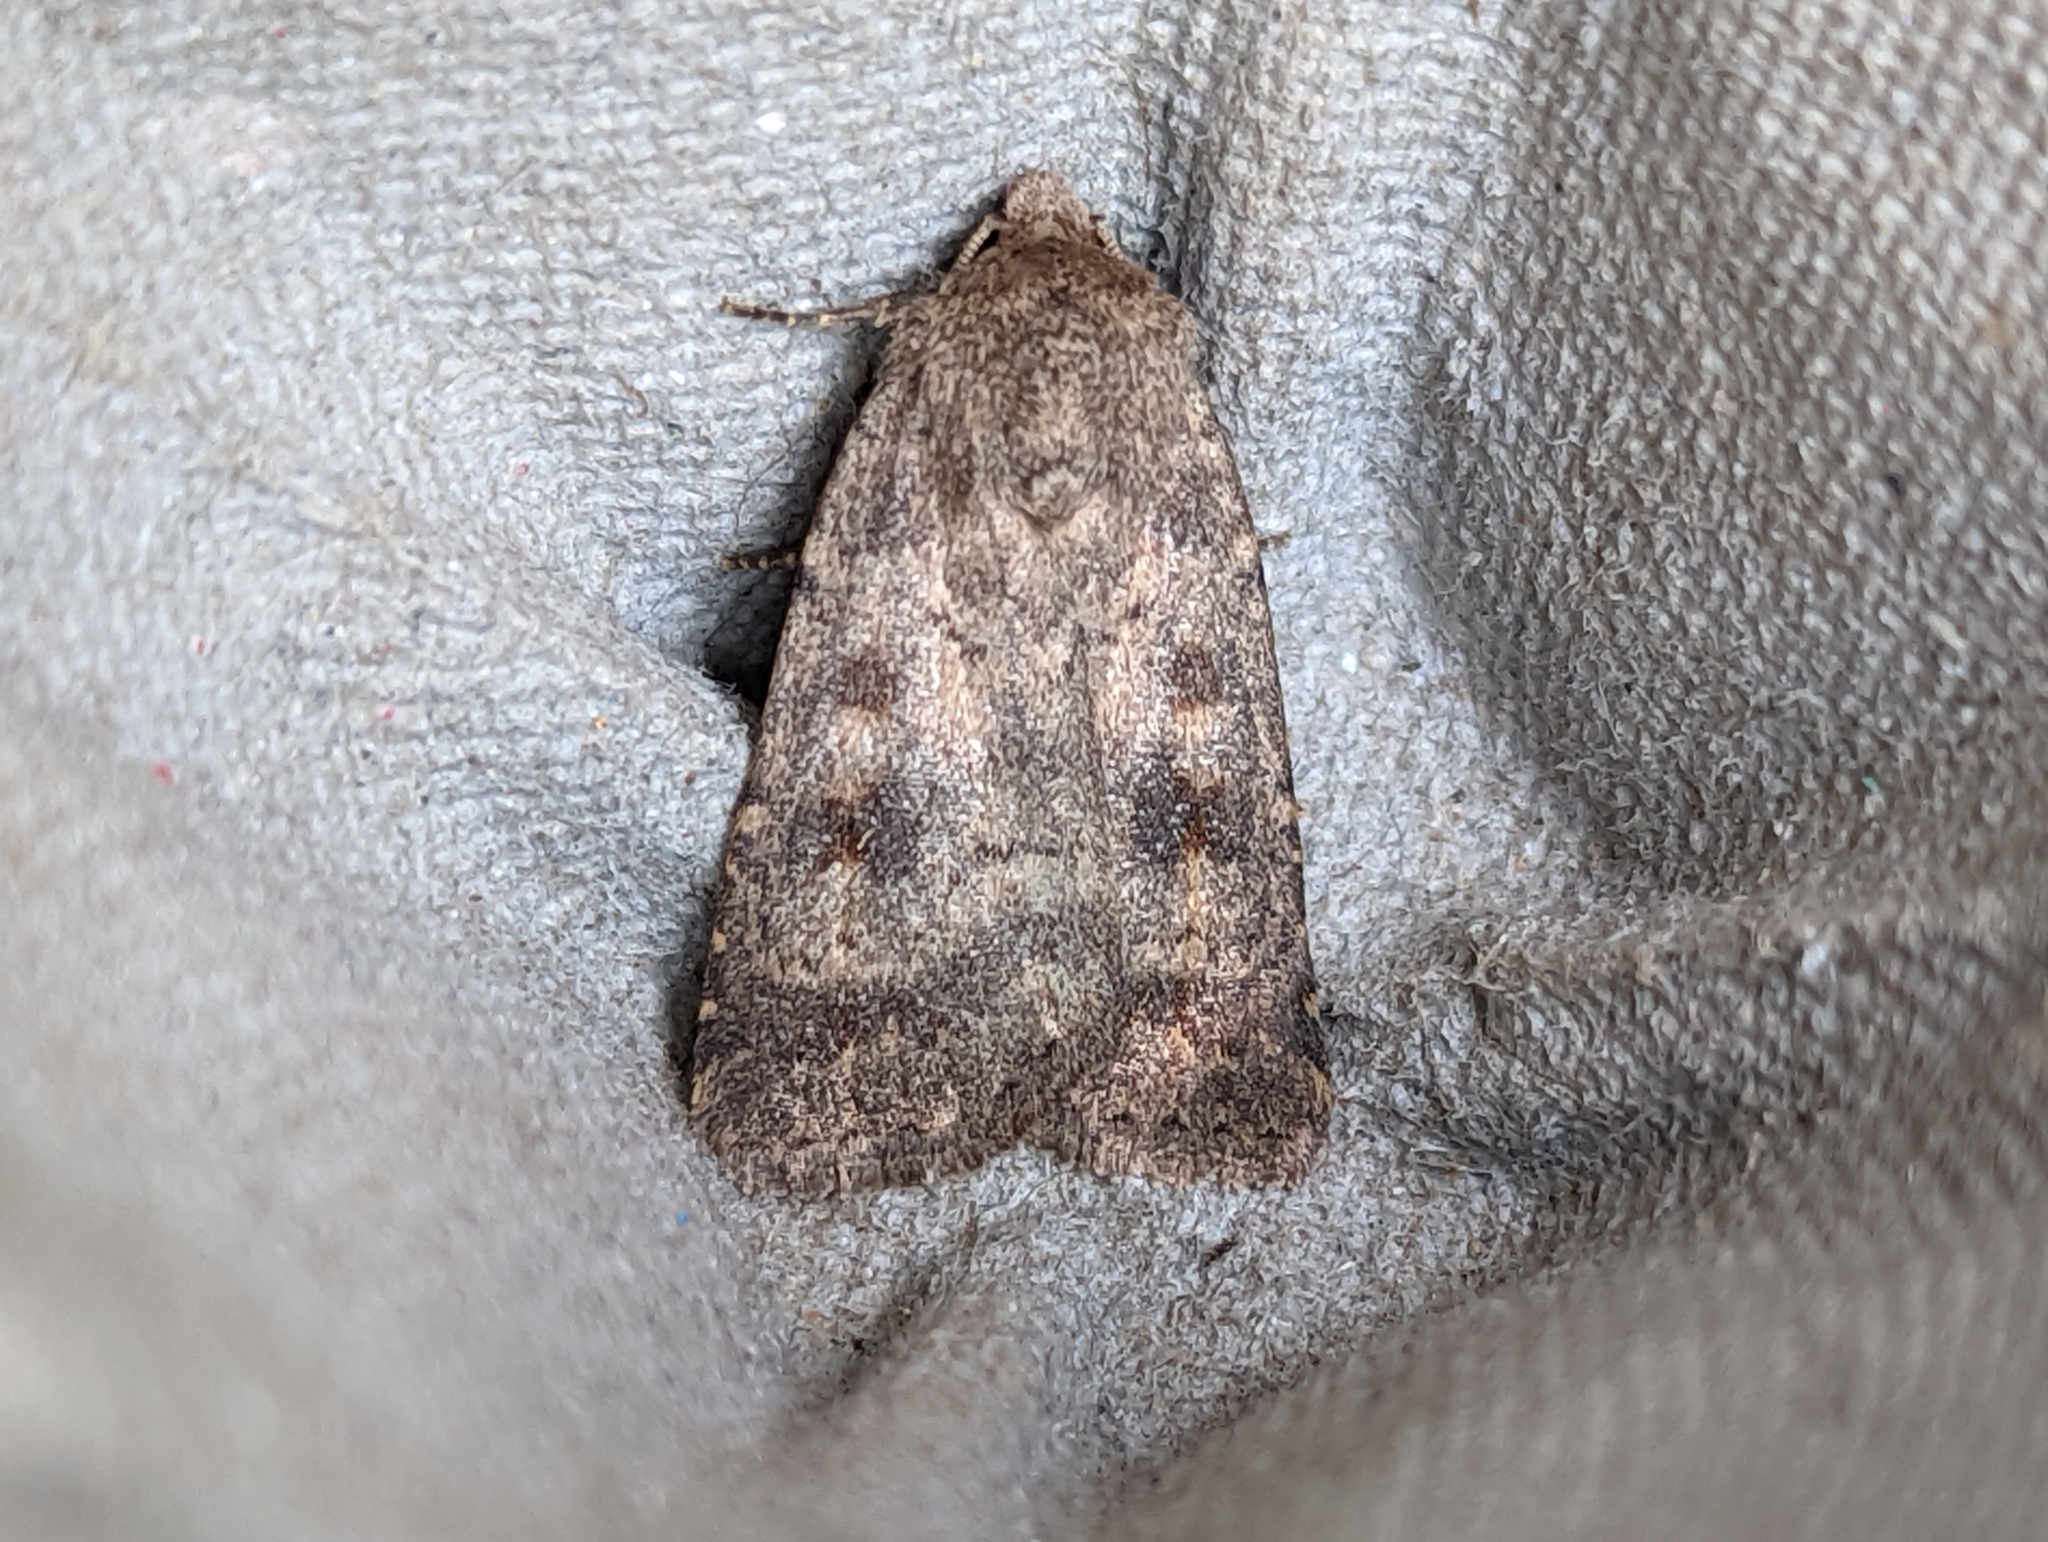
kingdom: Animalia
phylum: Arthropoda
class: Insecta
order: Lepidoptera
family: Noctuidae
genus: Caradrina
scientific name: Caradrina morpheus
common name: Mottled rustic
